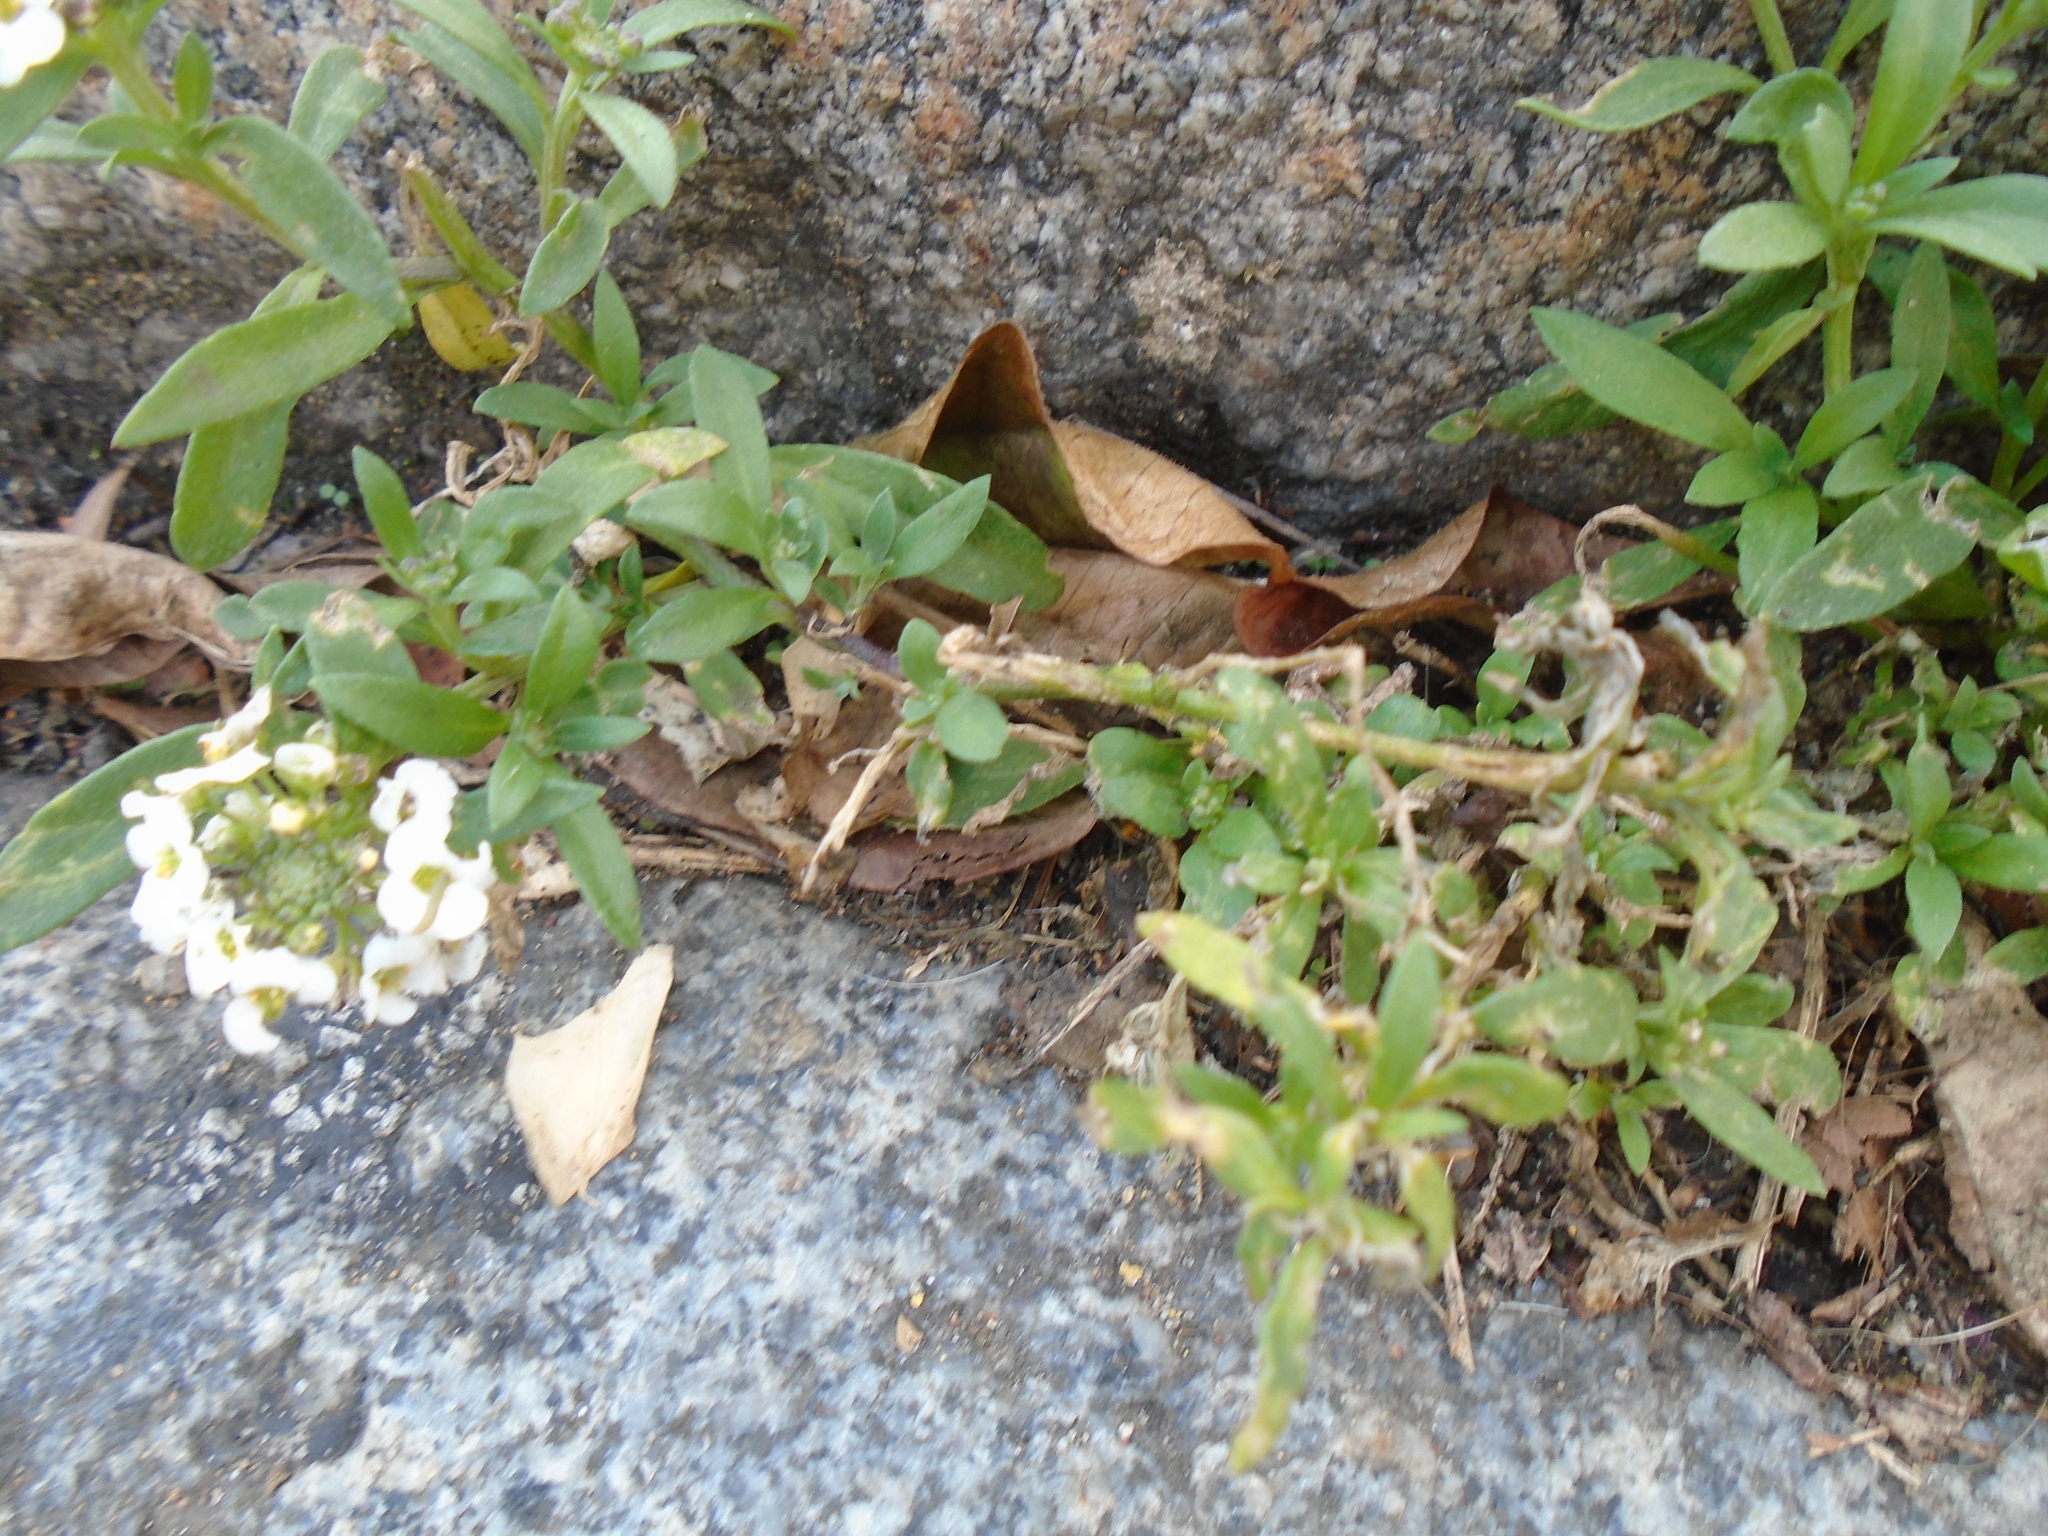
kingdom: Plantae
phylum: Tracheophyta
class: Magnoliopsida
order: Brassicales
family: Brassicaceae
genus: Lobularia
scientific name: Lobularia maritima
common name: Sweet alison
